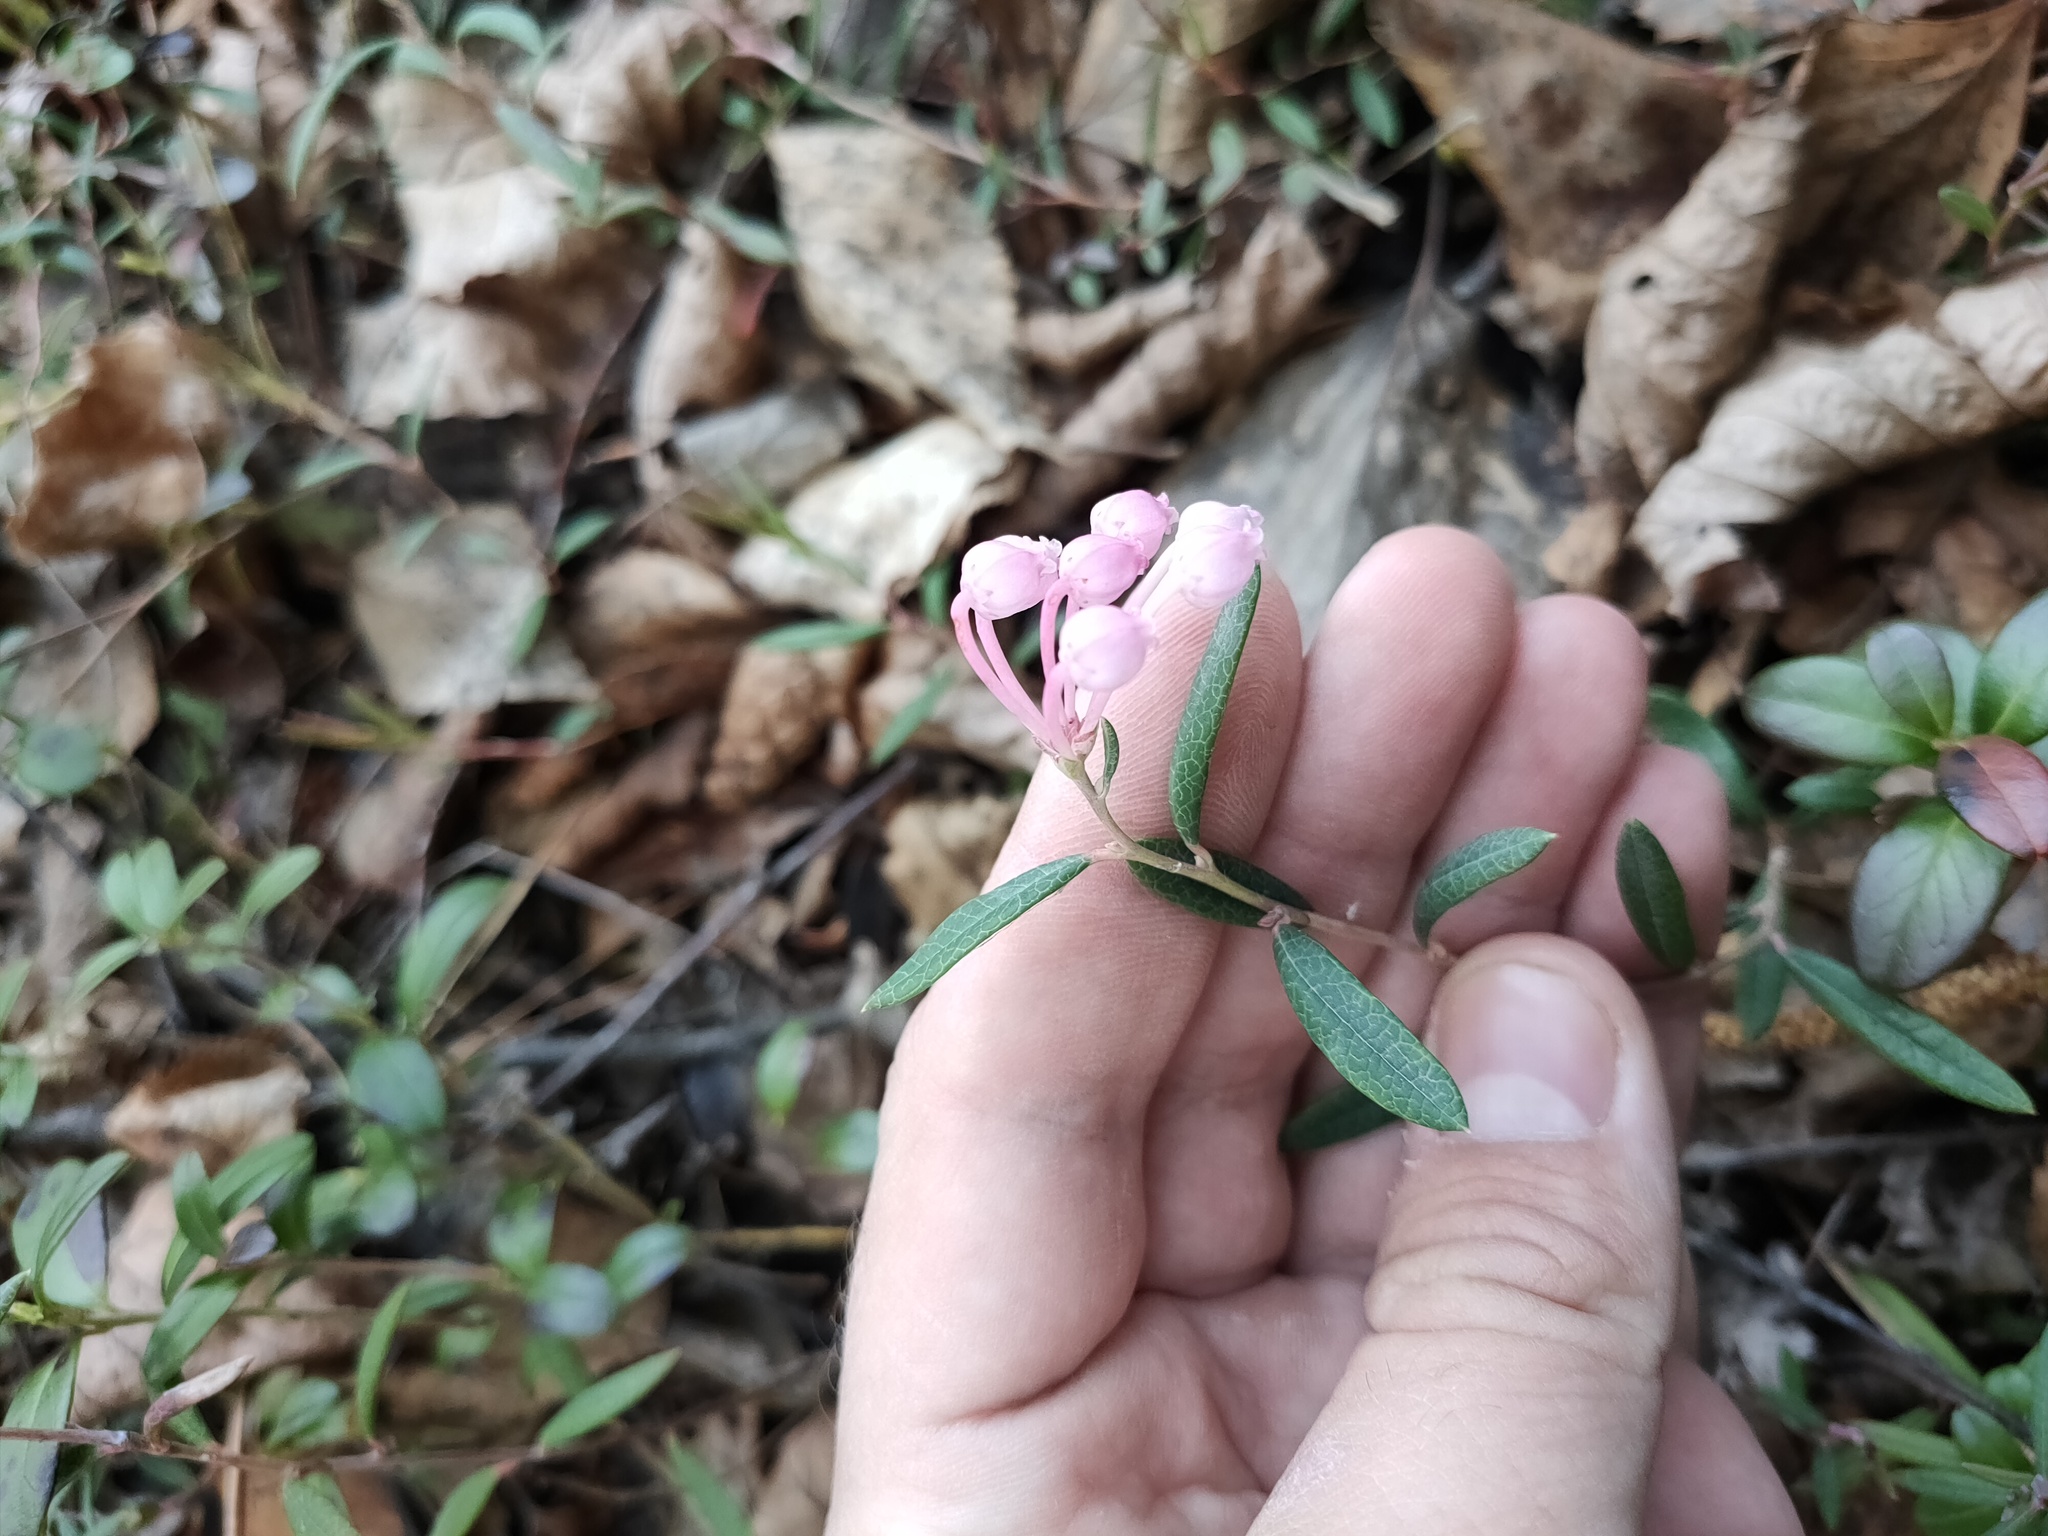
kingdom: Plantae
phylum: Tracheophyta
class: Magnoliopsida
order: Ericales
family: Ericaceae
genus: Andromeda
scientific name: Andromeda polifolia
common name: Bog-rosemary
